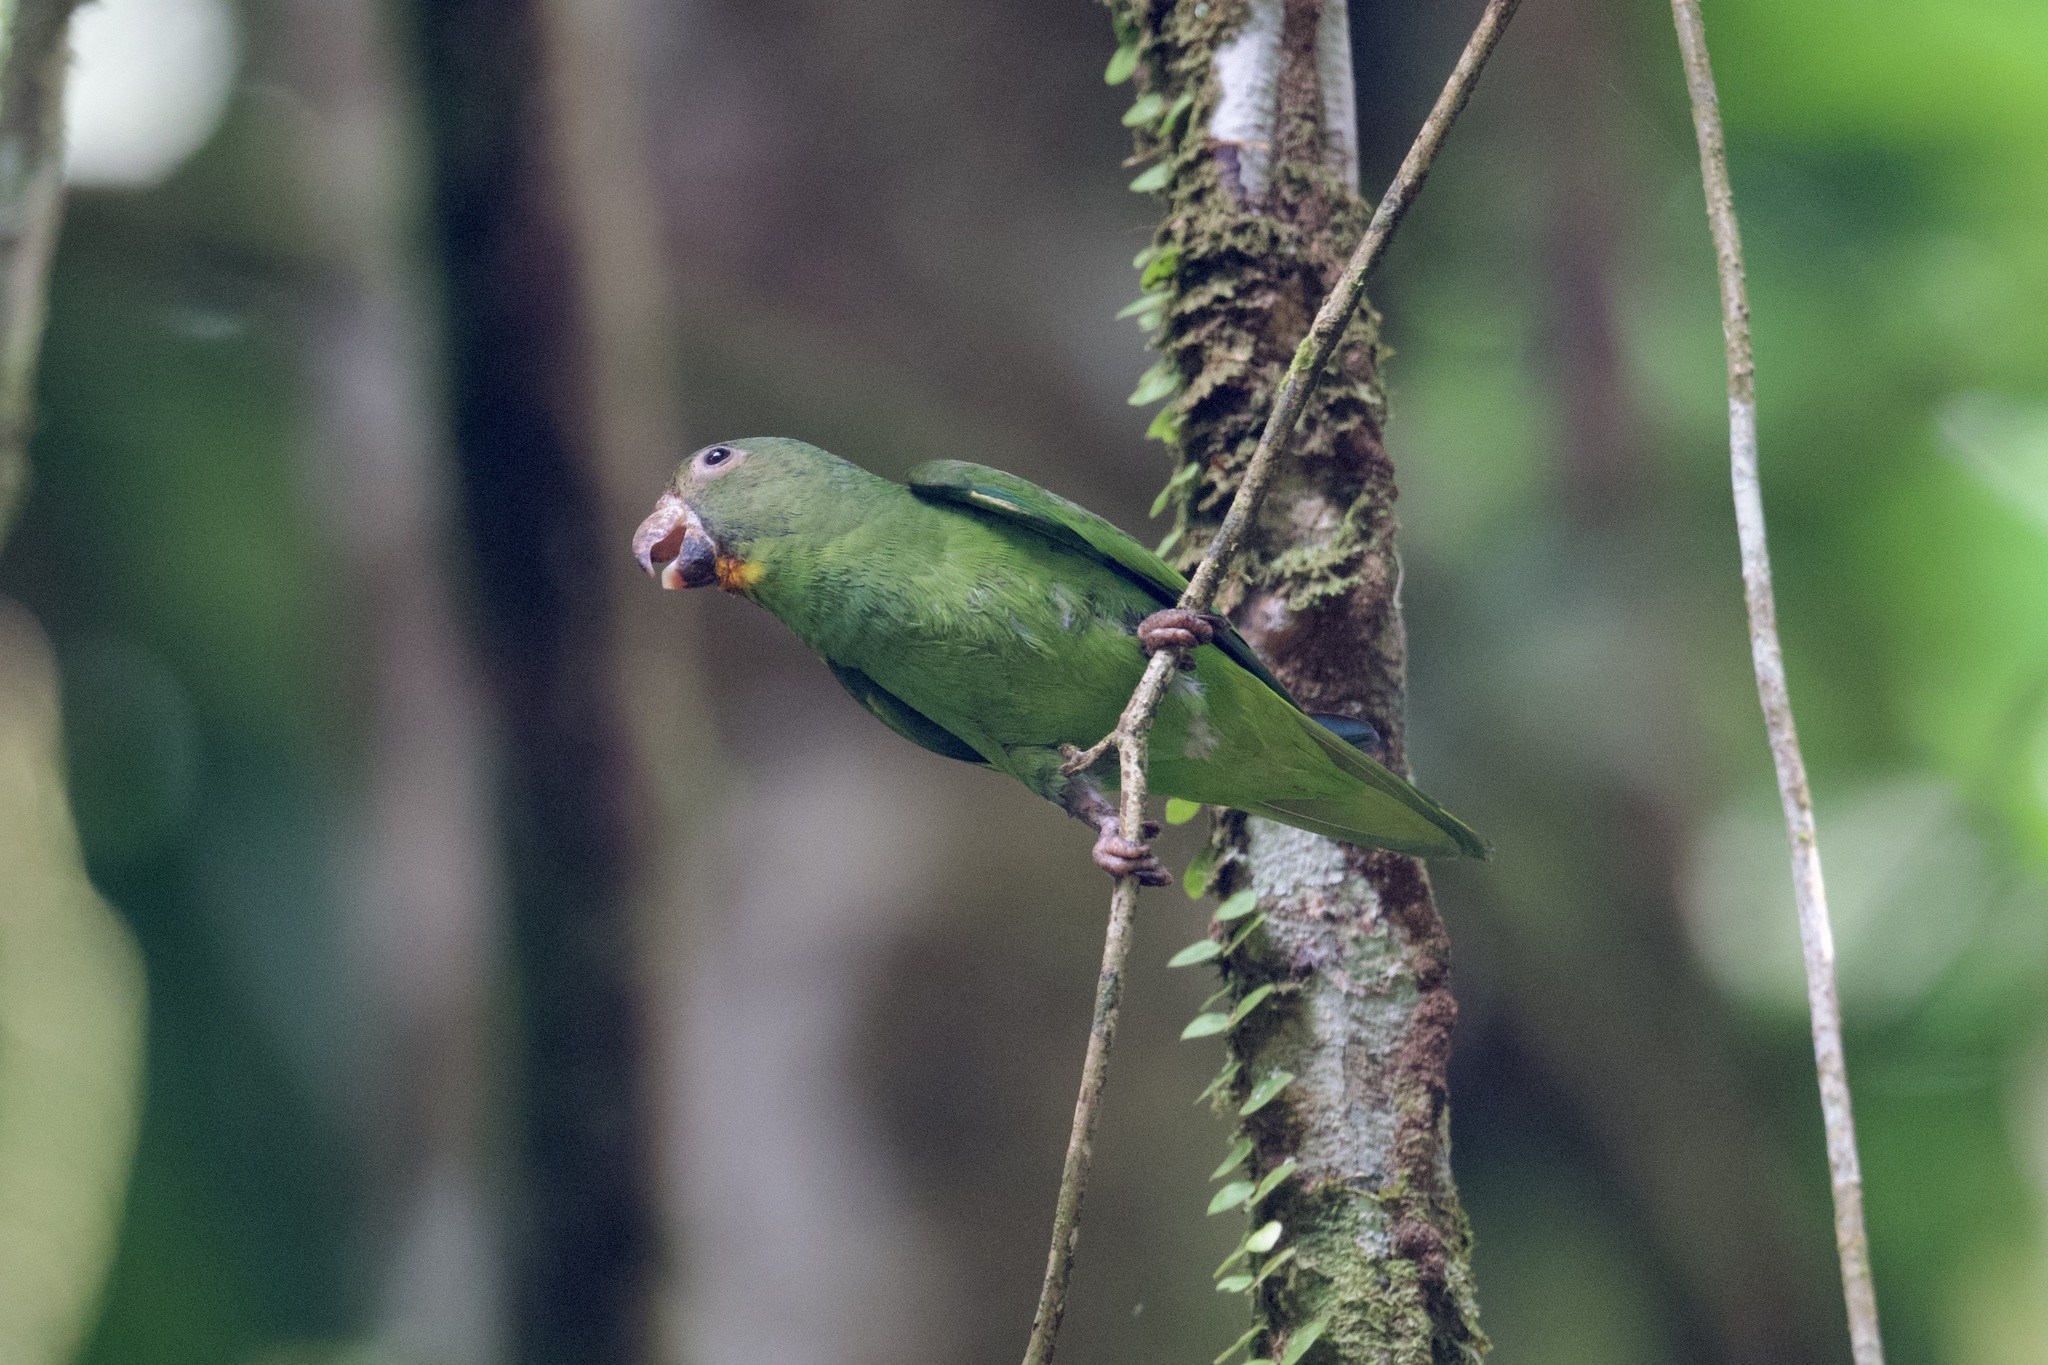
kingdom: Animalia
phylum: Chordata
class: Aves
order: Psittaciformes
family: Psittacidae
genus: Brotogeris
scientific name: Brotogeris cyanoptera
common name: Cobalt-winged parakeet
